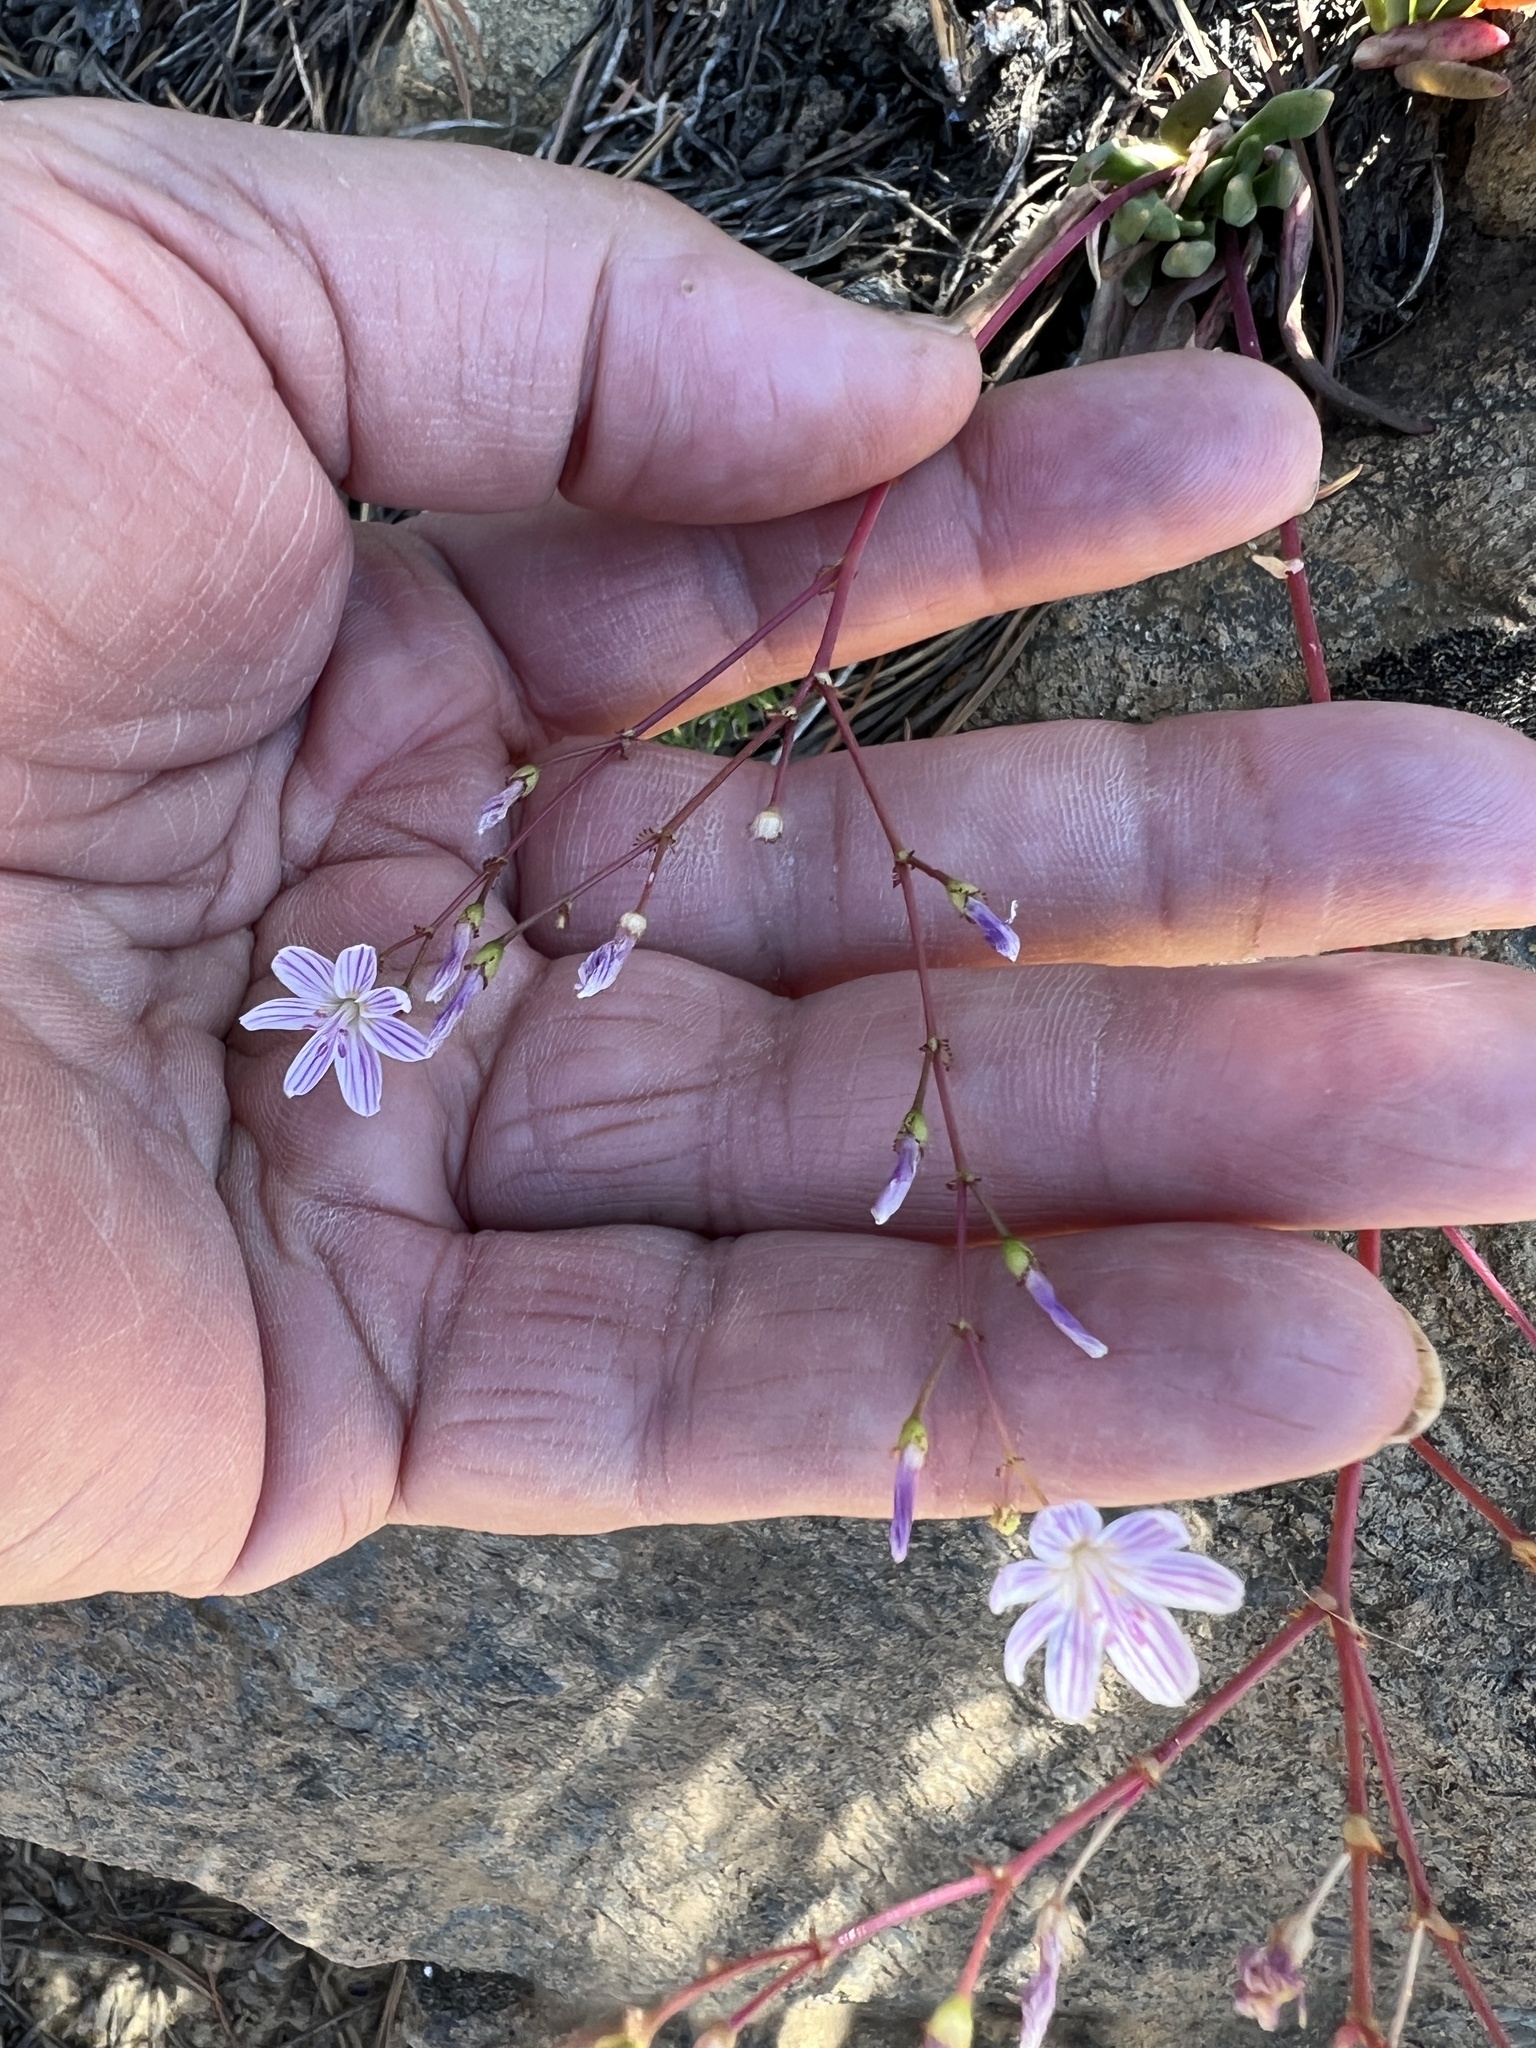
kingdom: Plantae
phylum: Tracheophyta
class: Magnoliopsida
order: Caryophyllales
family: Montiaceae
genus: Lewisia
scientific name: Lewisia columbiana
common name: Columbia lewisia
